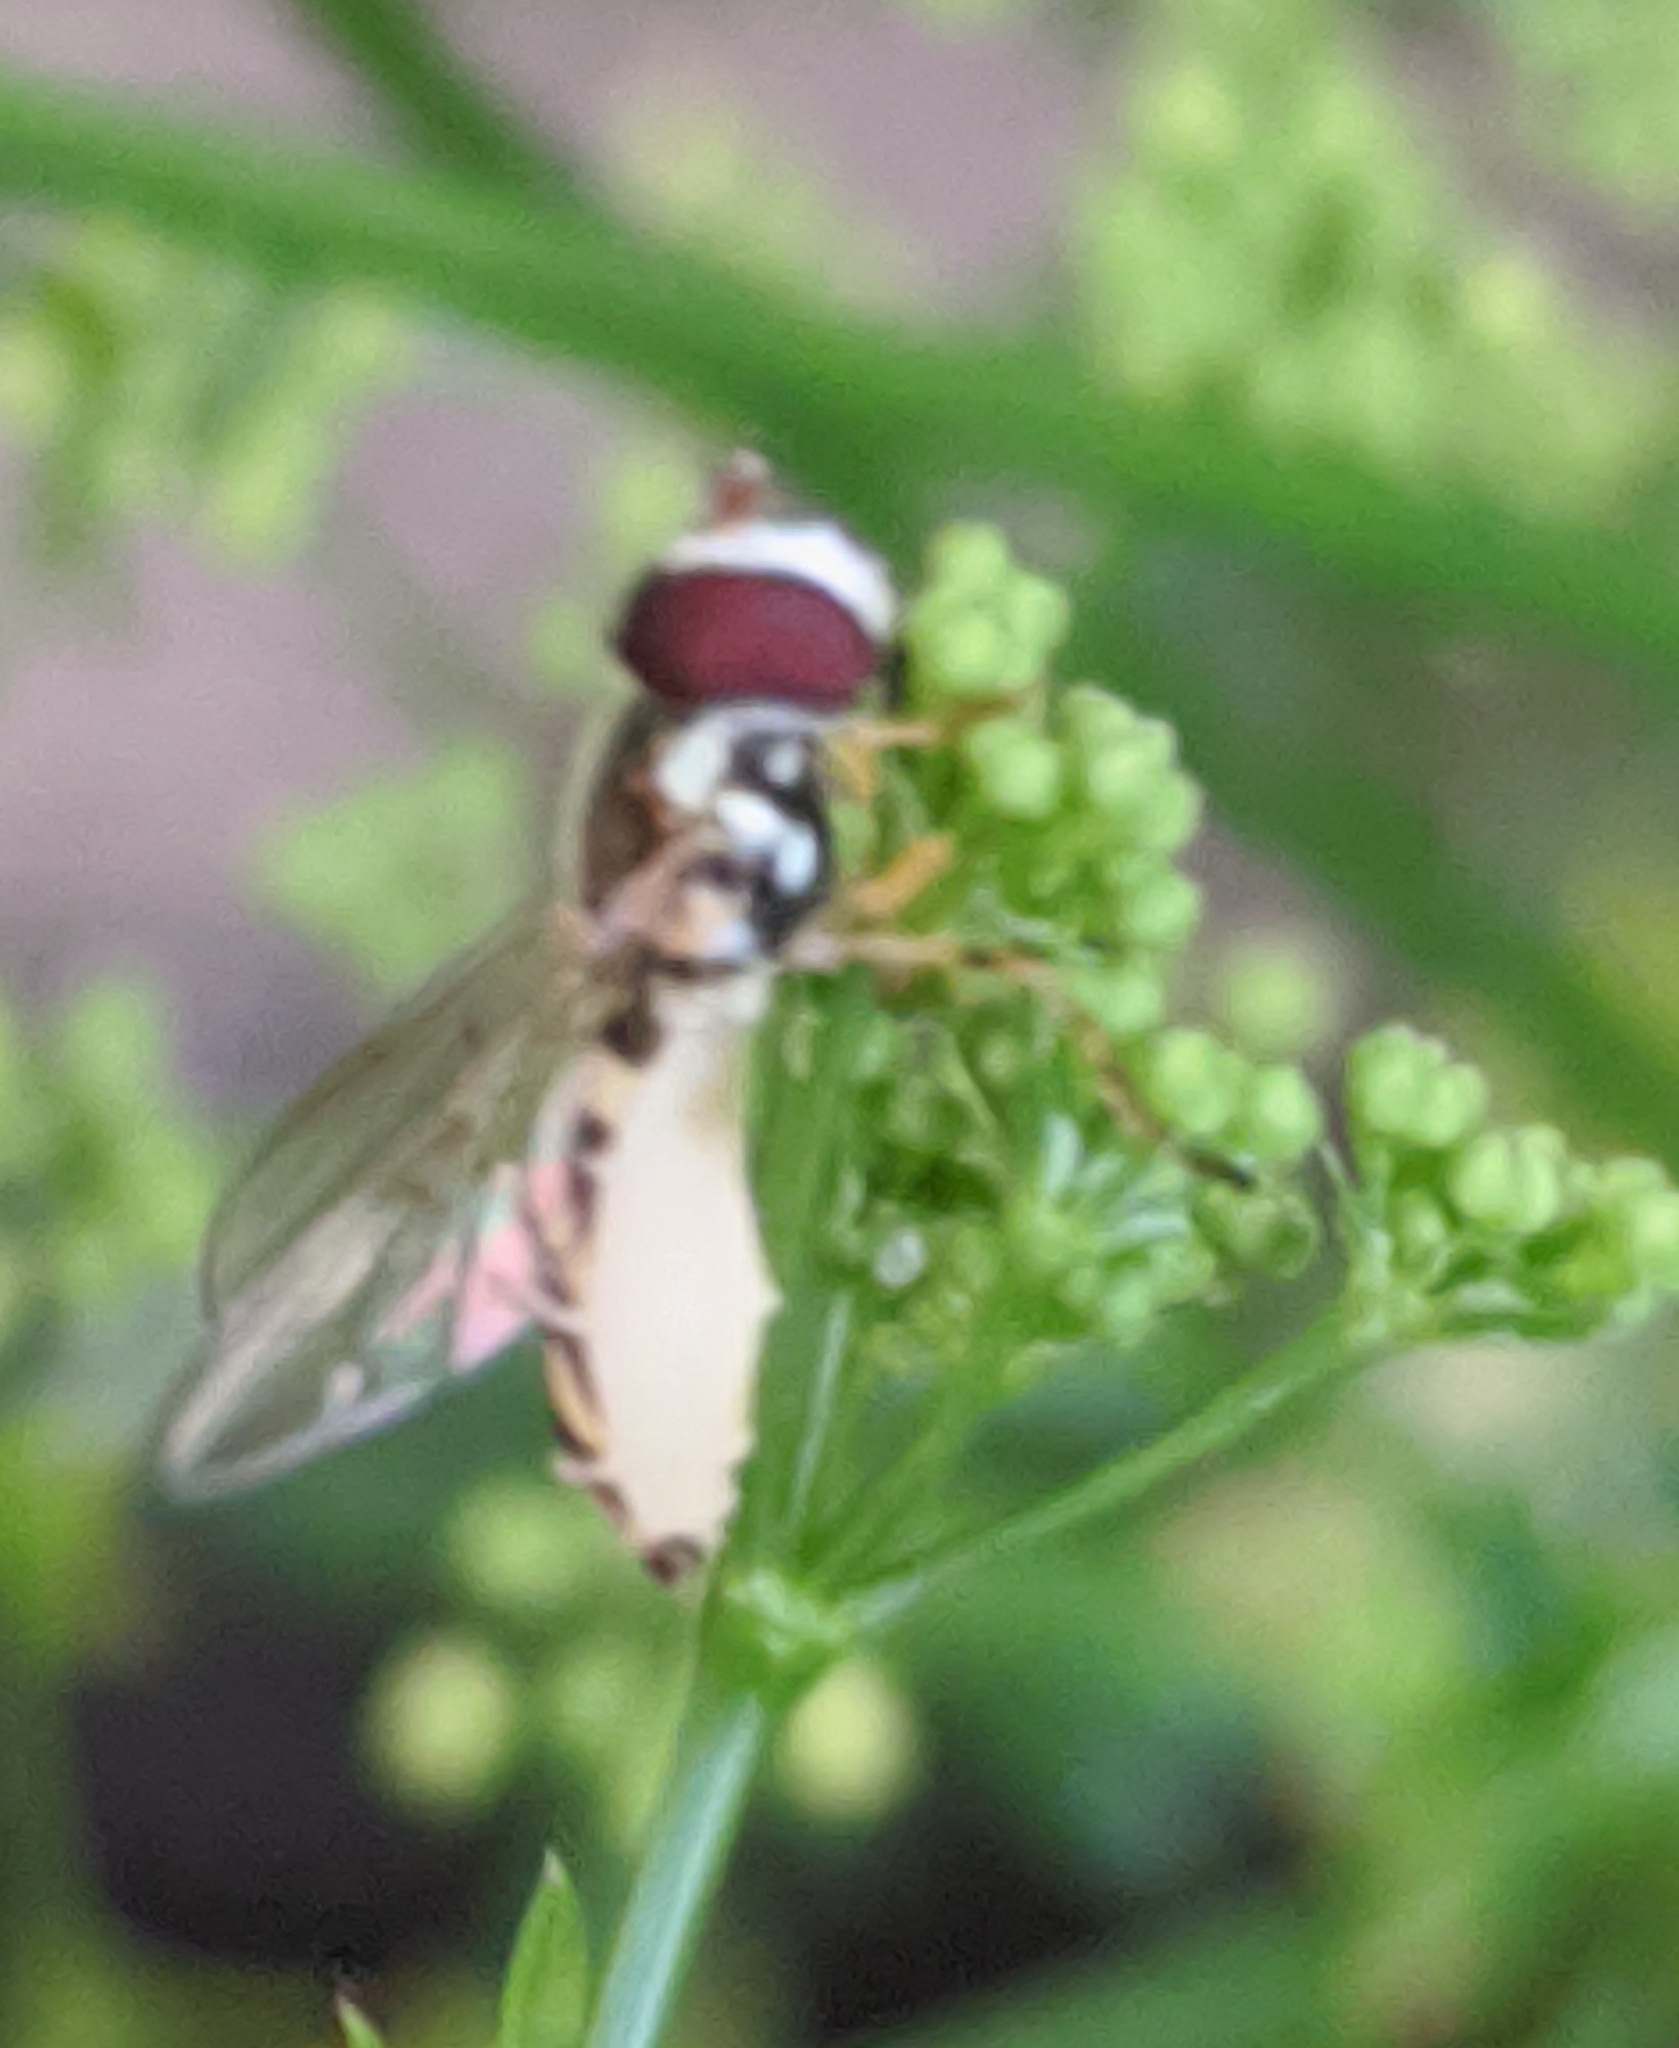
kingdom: Animalia
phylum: Arthropoda
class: Insecta
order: Diptera
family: Syrphidae
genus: Allograpta
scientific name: Allograpta exotica
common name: Syrphid fly
